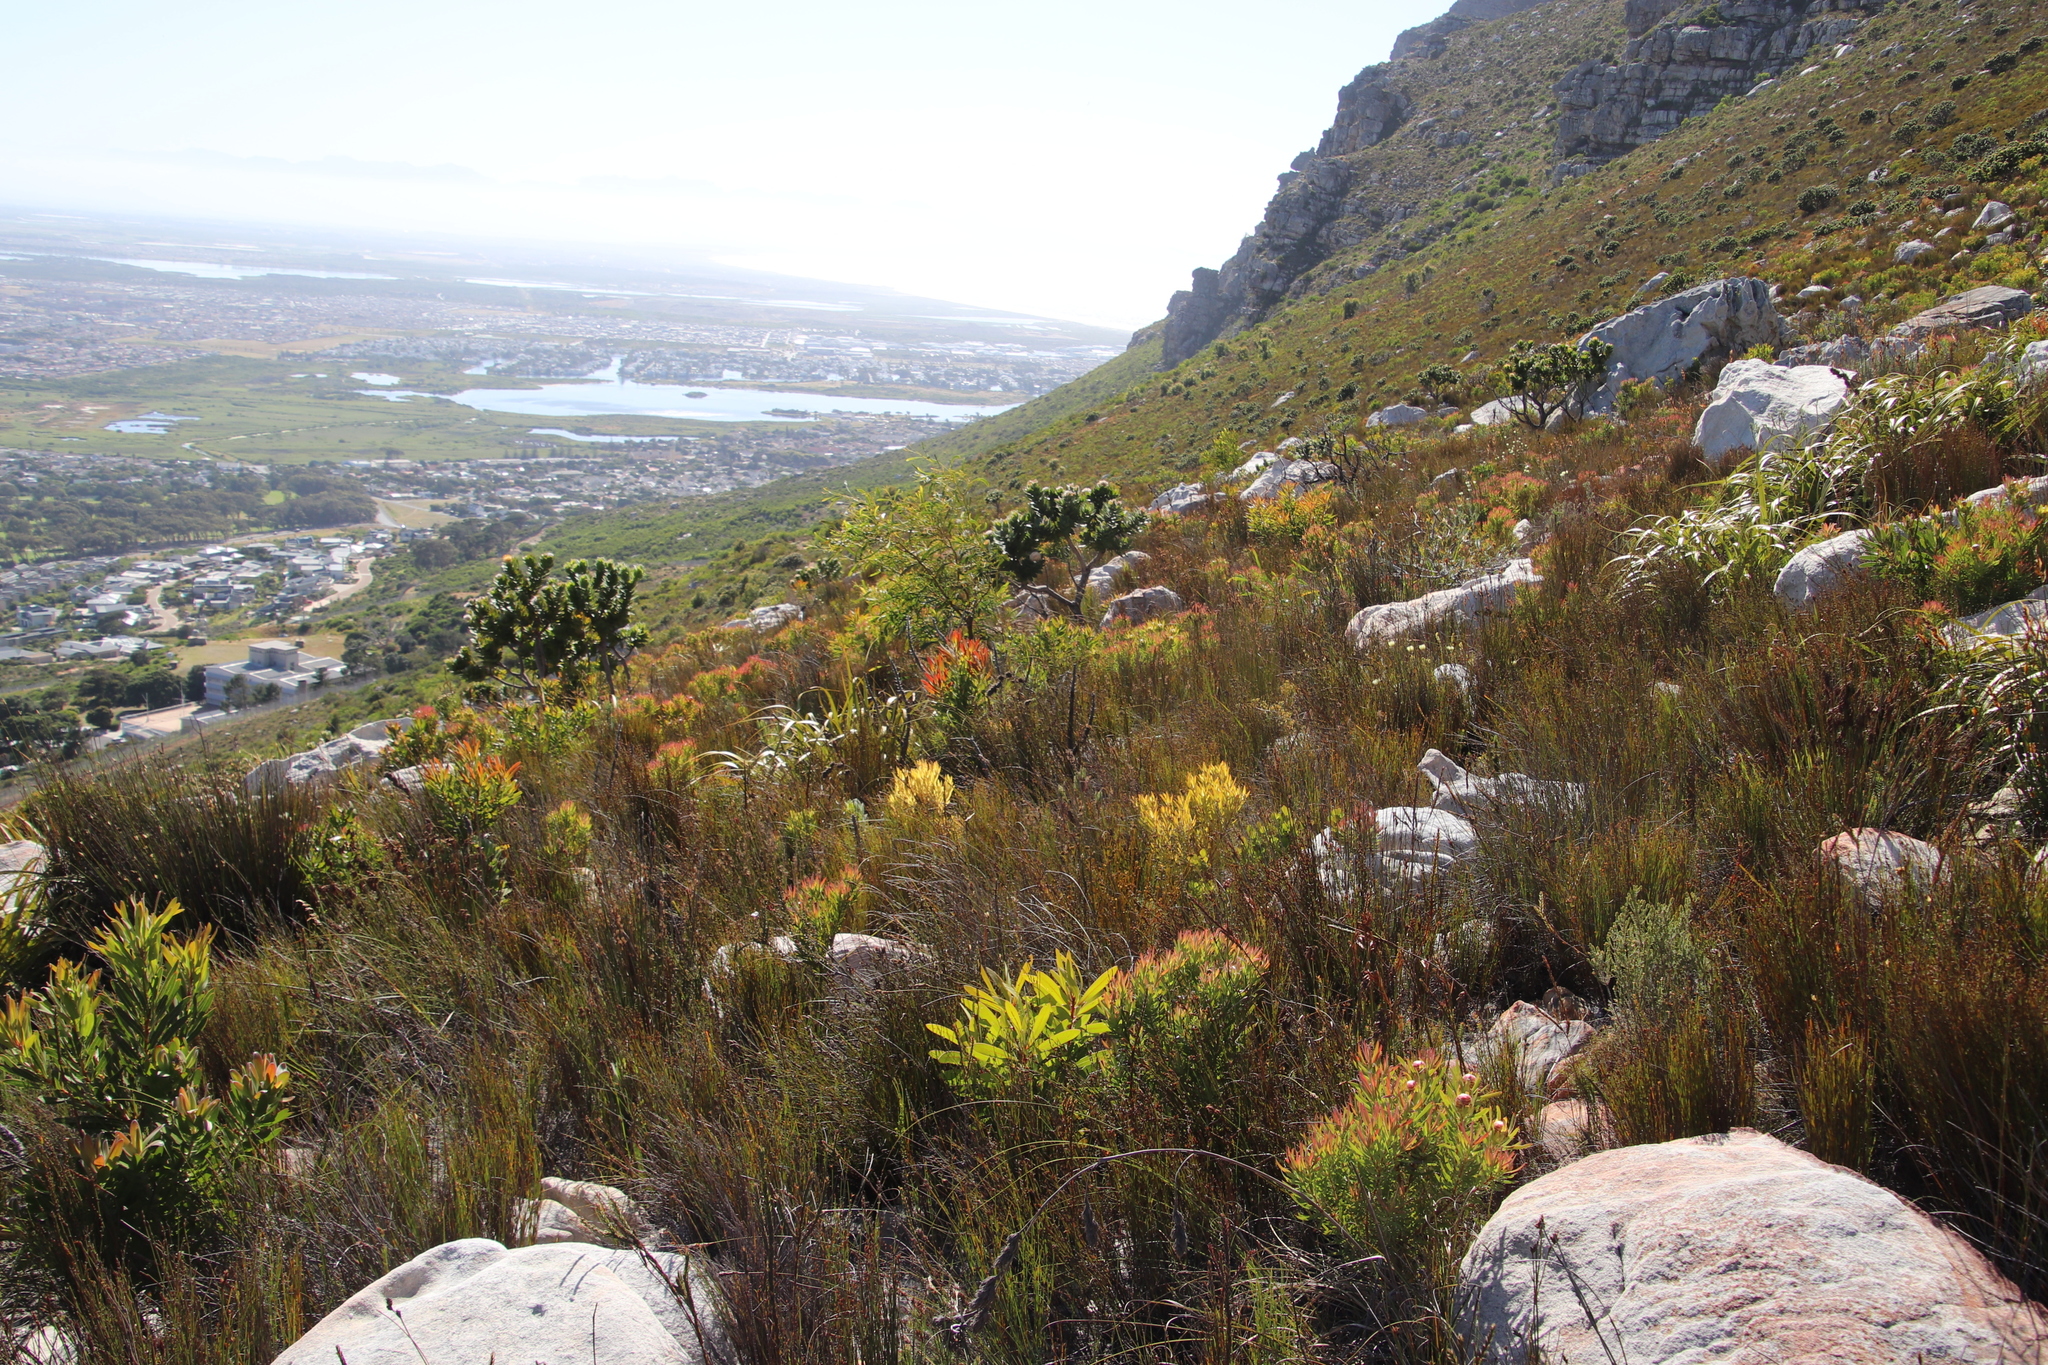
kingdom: Plantae
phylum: Tracheophyta
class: Magnoliopsida
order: Proteales
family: Proteaceae
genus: Leucadendron
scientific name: Leucadendron xanthoconus
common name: Sickle-leaf conebush
